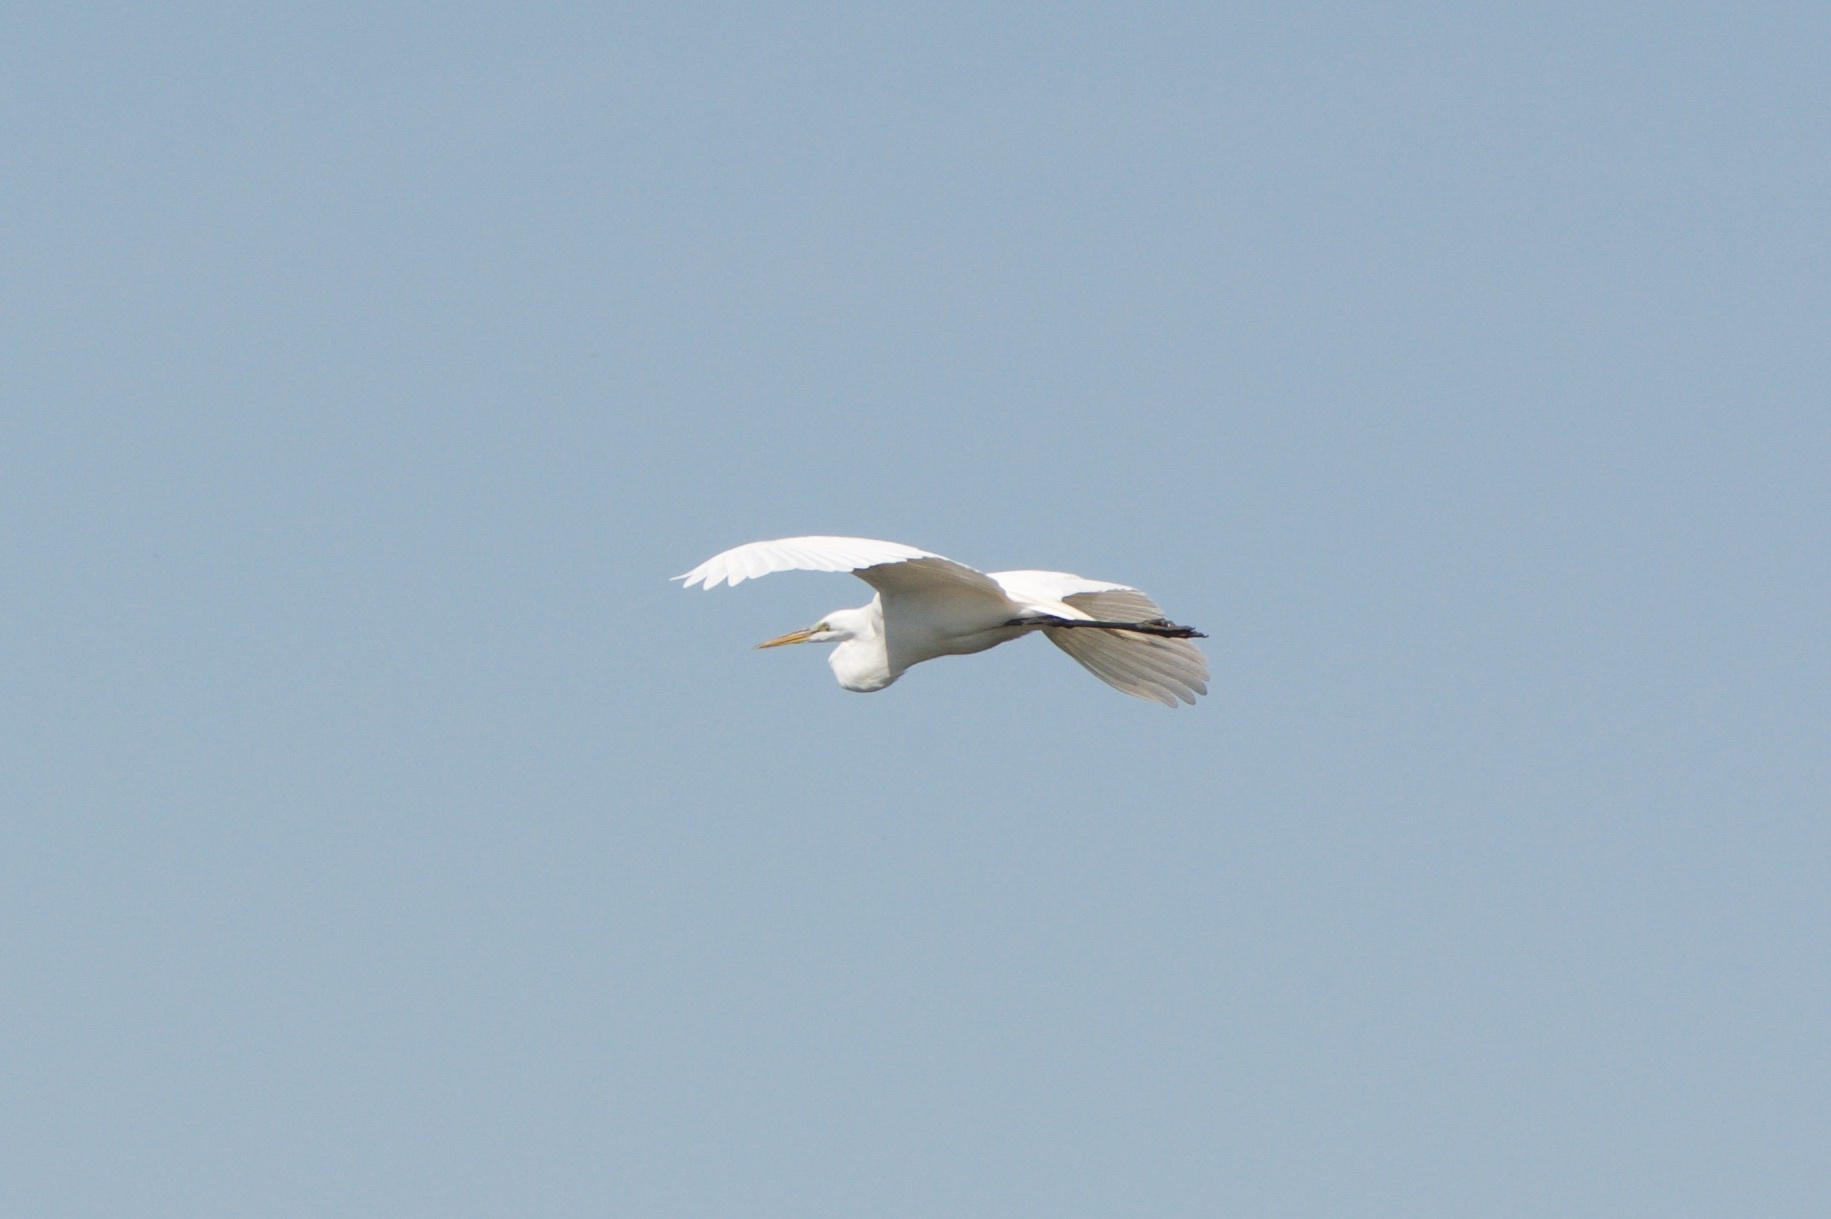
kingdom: Animalia
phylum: Chordata
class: Aves
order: Pelecaniformes
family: Ardeidae
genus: Ardea
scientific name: Ardea alba
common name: Great egret
